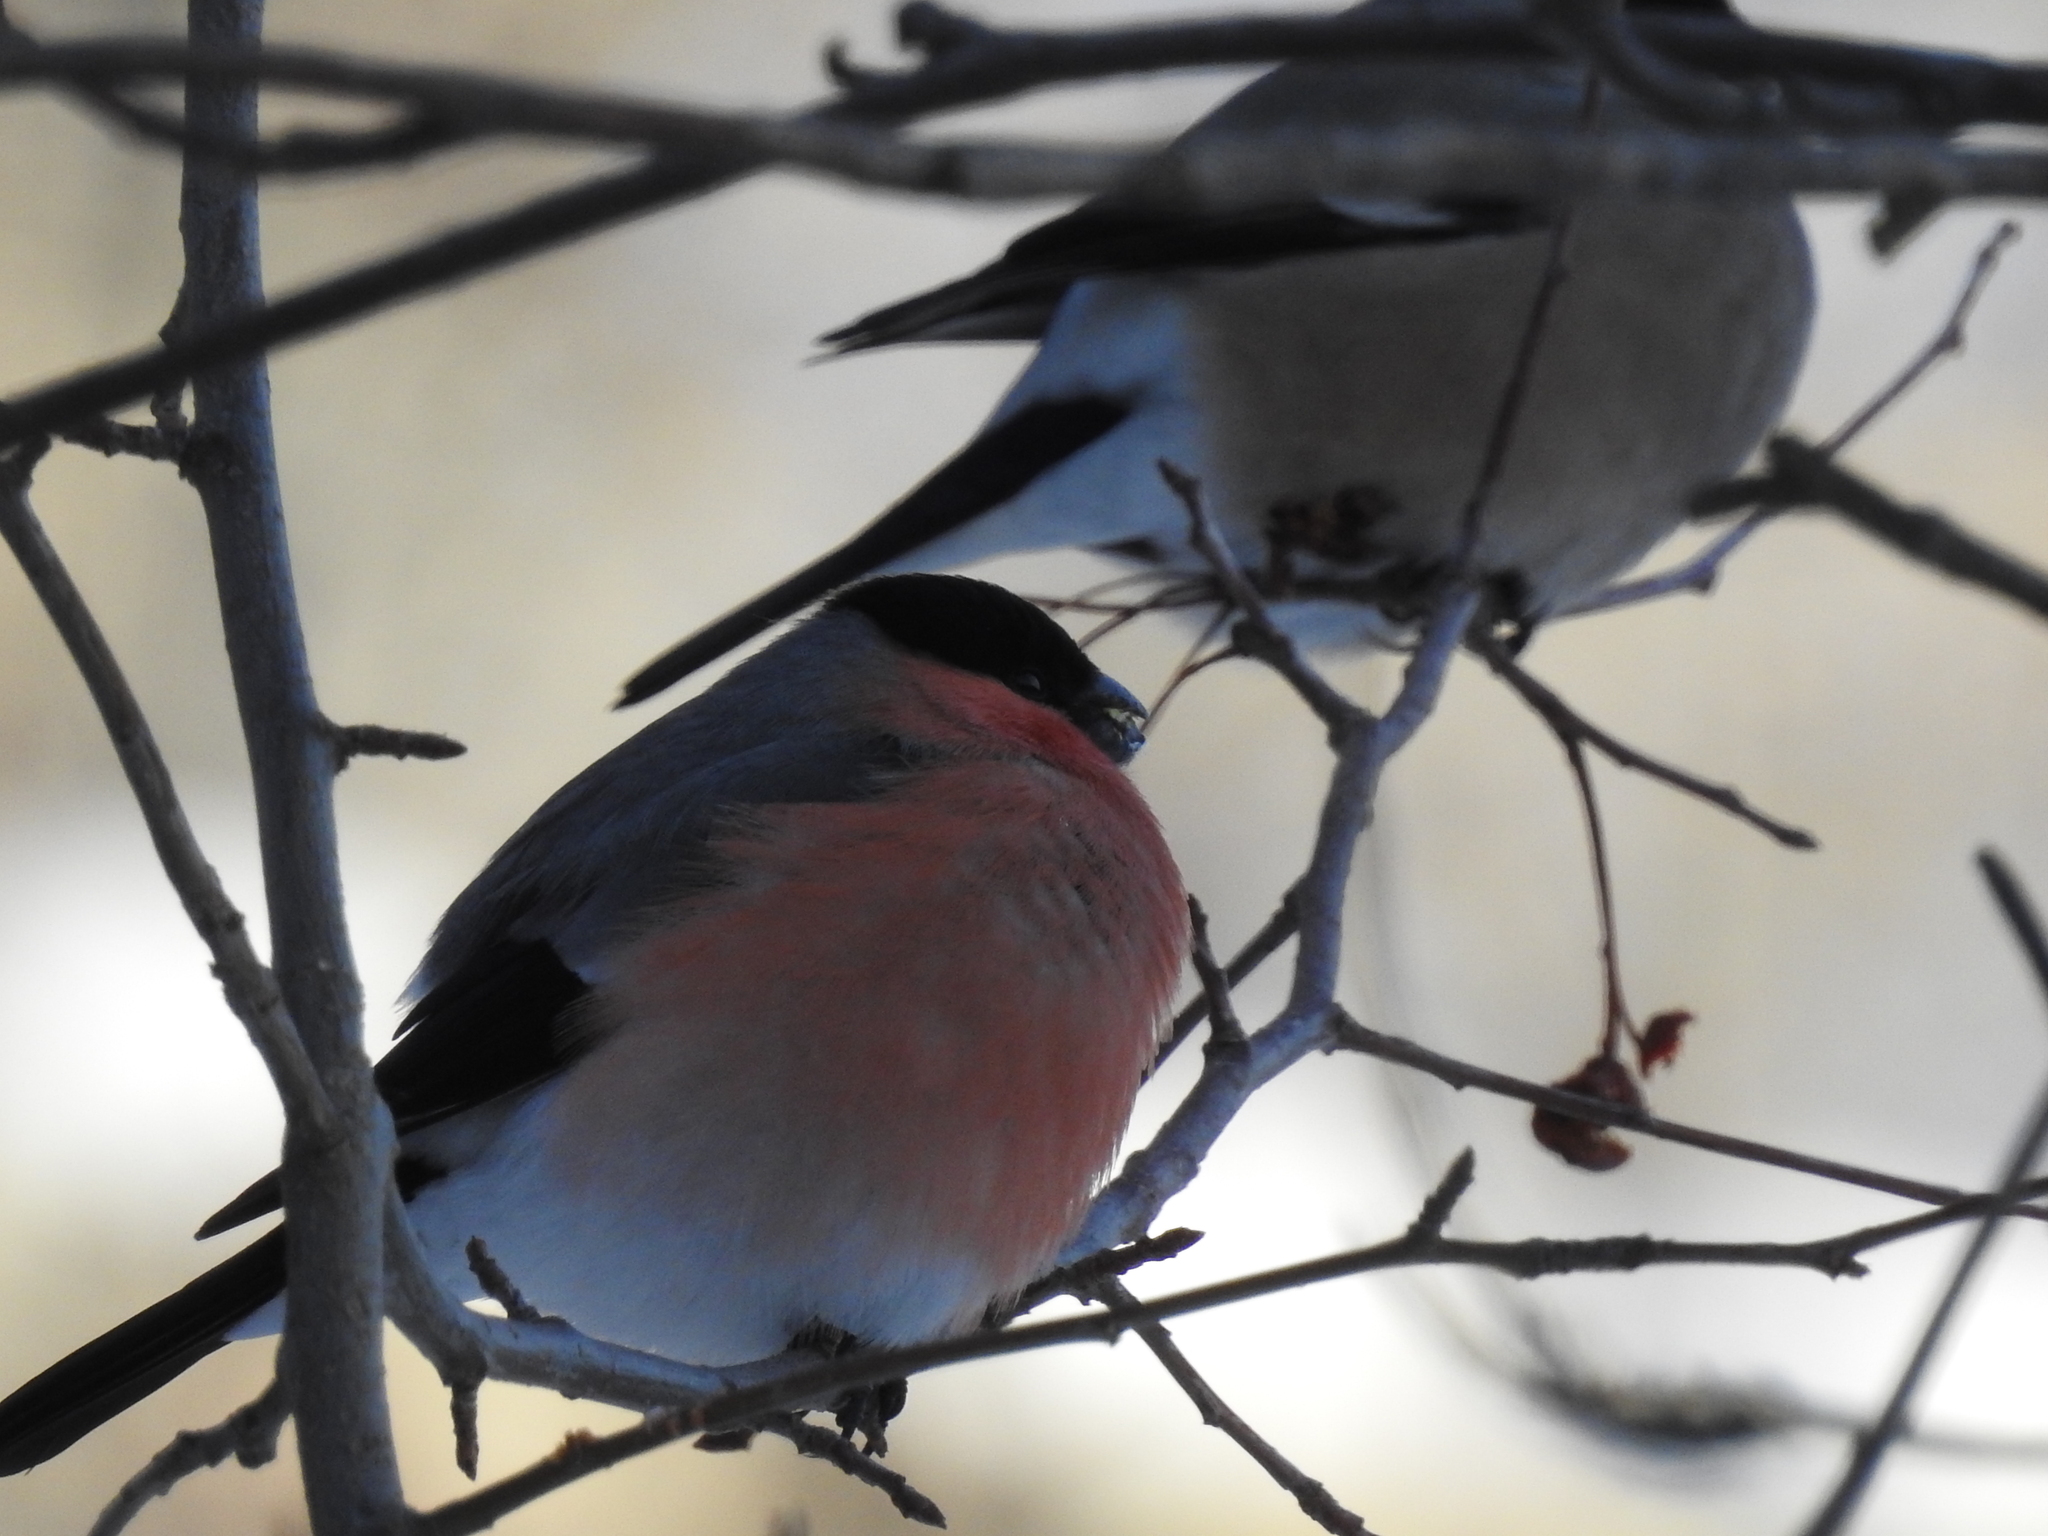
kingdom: Animalia
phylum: Chordata
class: Aves
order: Passeriformes
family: Fringillidae
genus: Pyrrhula
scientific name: Pyrrhula pyrrhula
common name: Eurasian bullfinch
